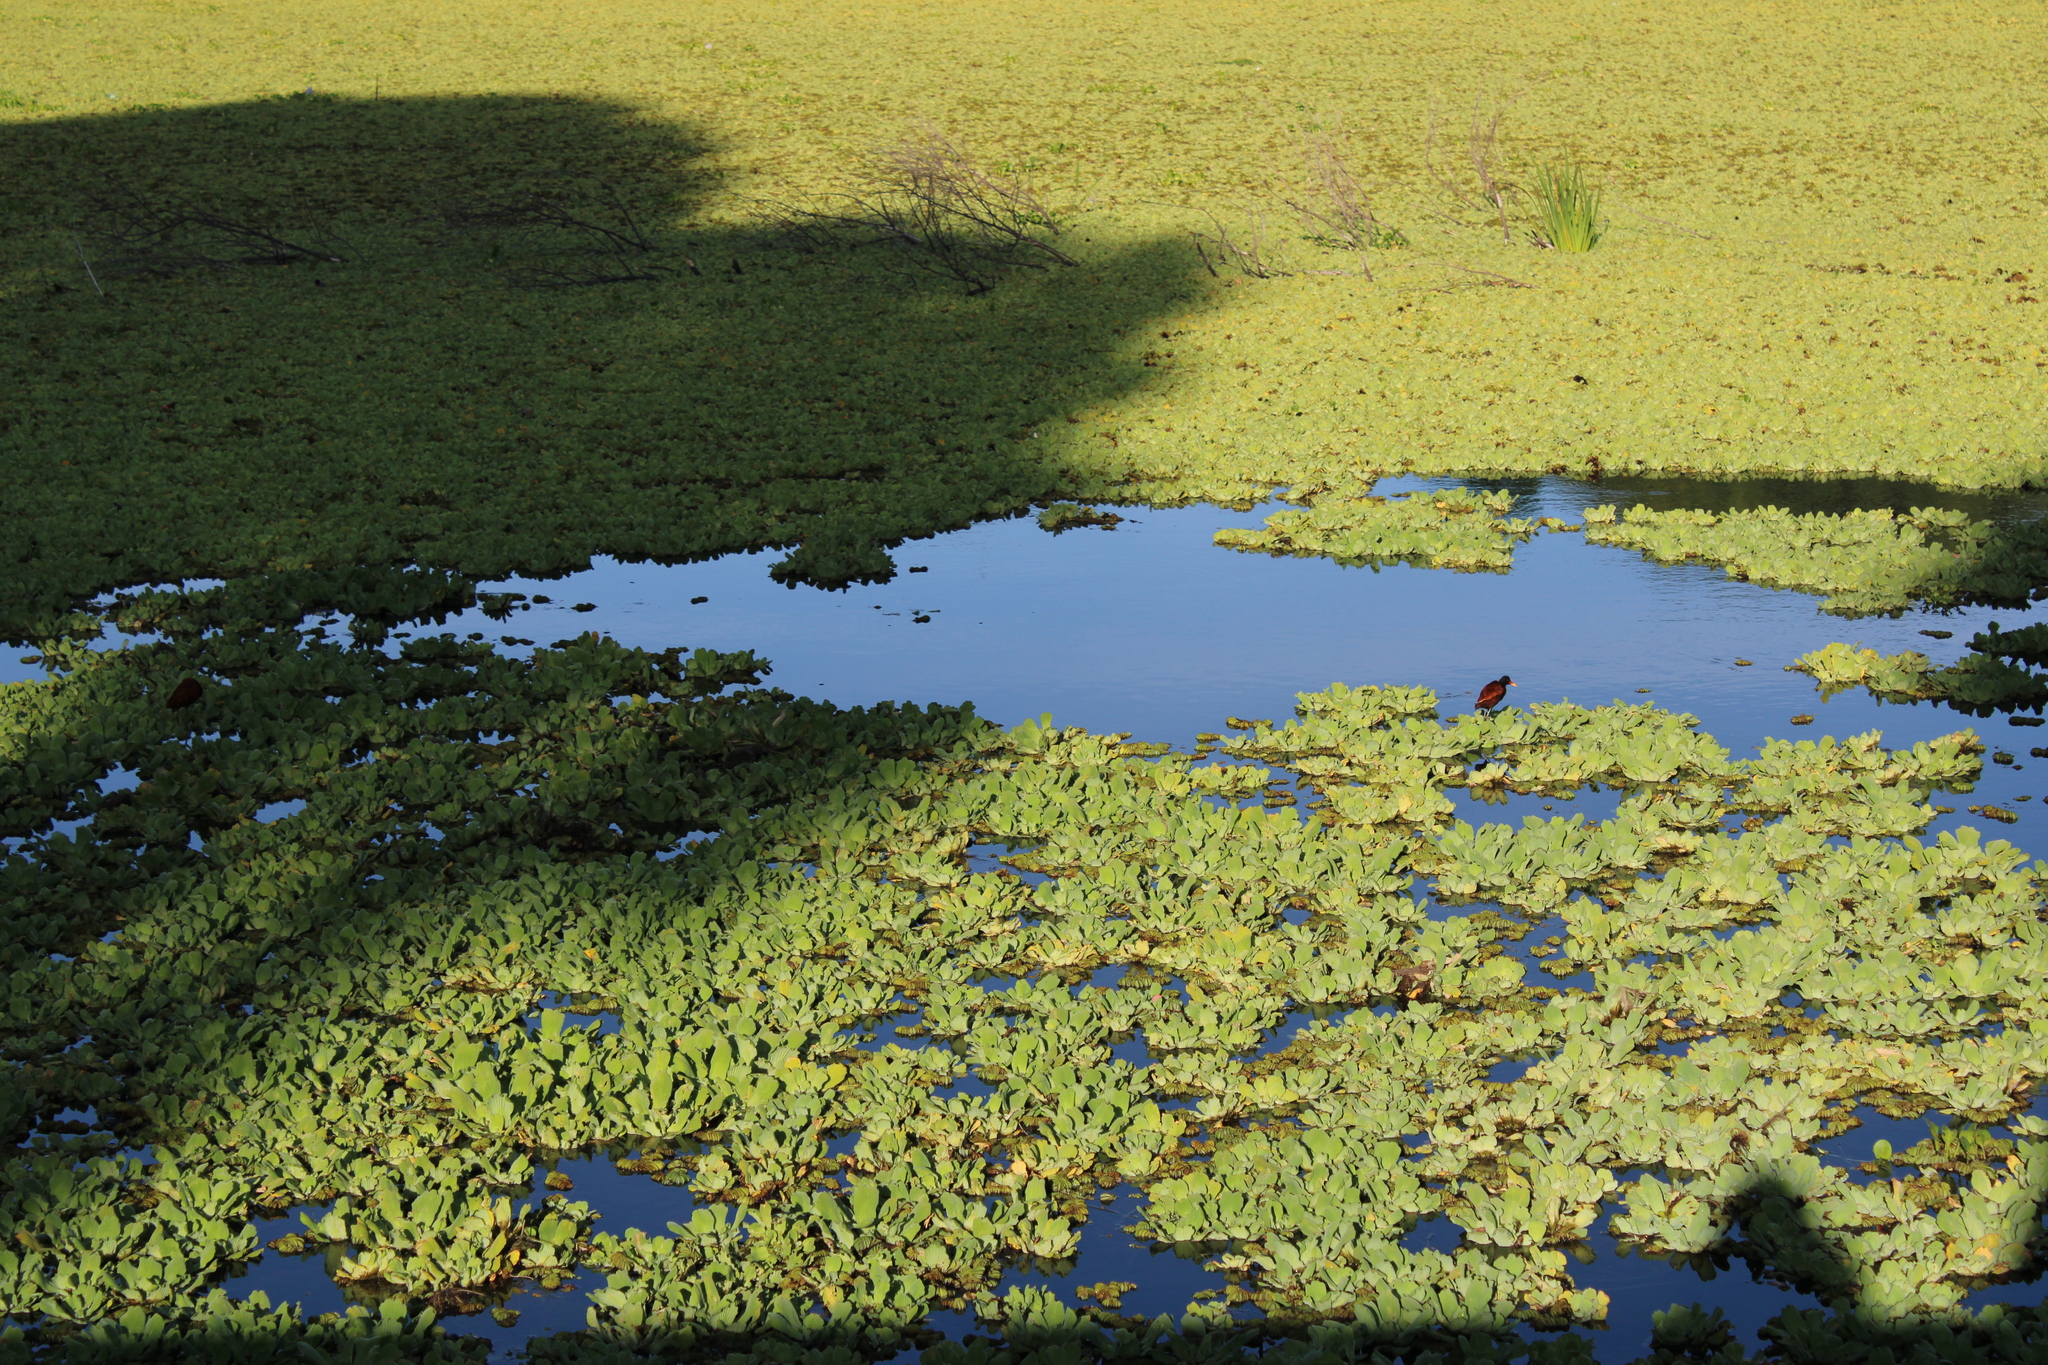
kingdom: Animalia
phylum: Chordata
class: Aves
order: Charadriiformes
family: Jacanidae
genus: Jacana
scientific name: Jacana jacana
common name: Wattled jacana
